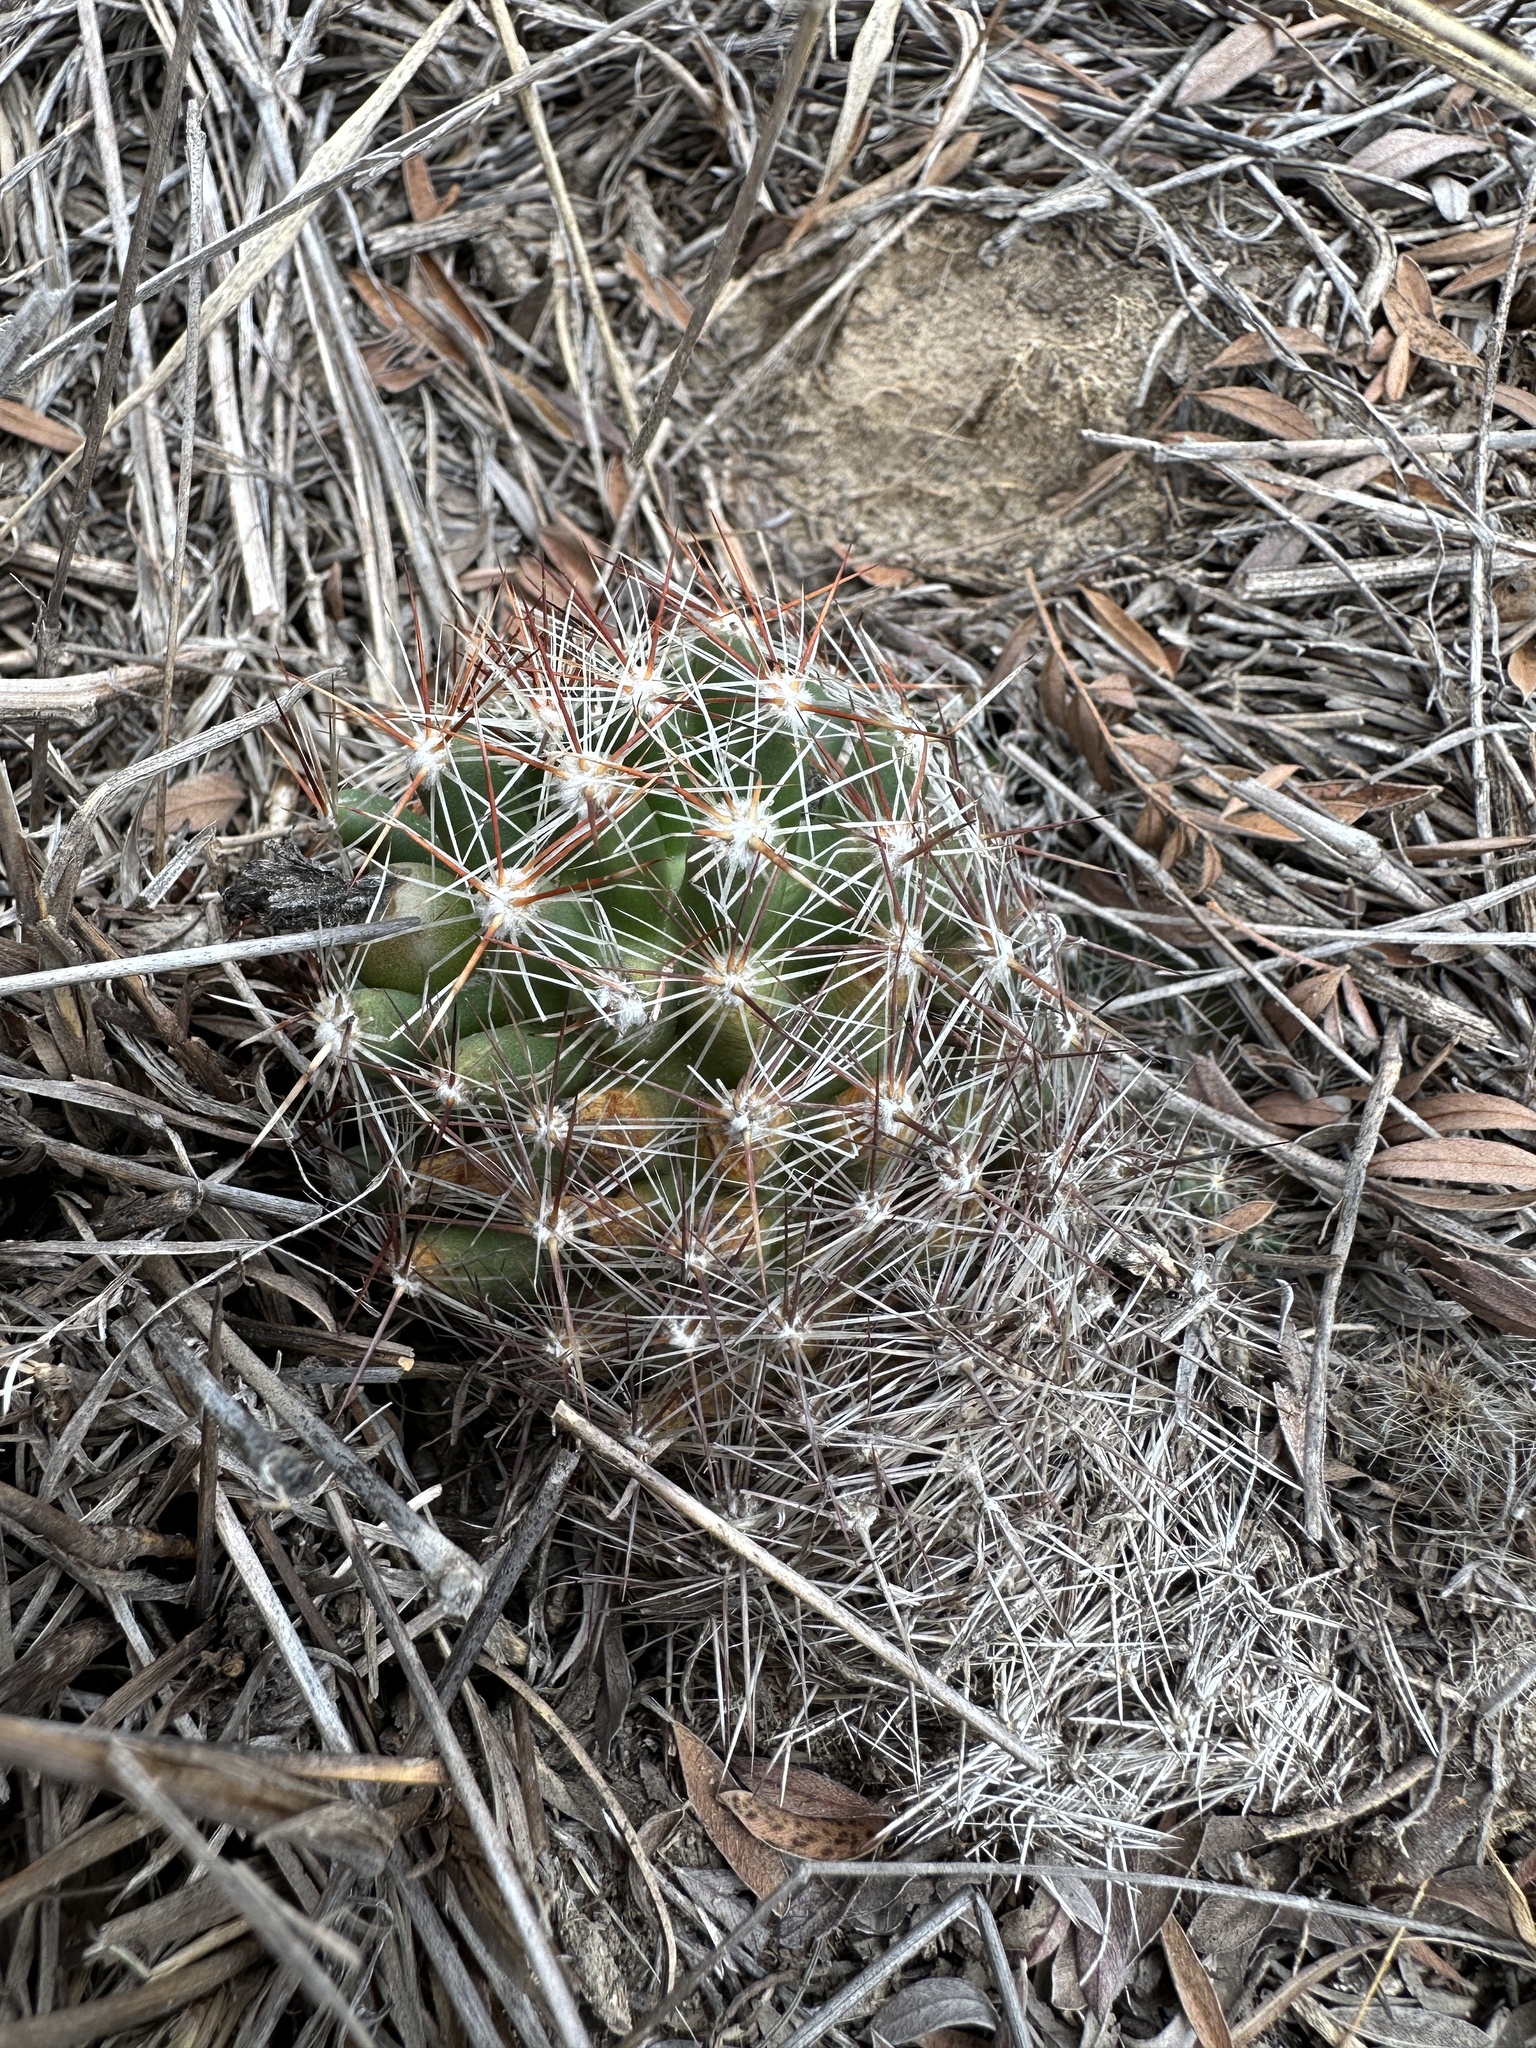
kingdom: Plantae
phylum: Tracheophyta
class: Magnoliopsida
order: Caryophyllales
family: Cactaceae
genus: Pelecyphora
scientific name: Pelecyphora vivipara
